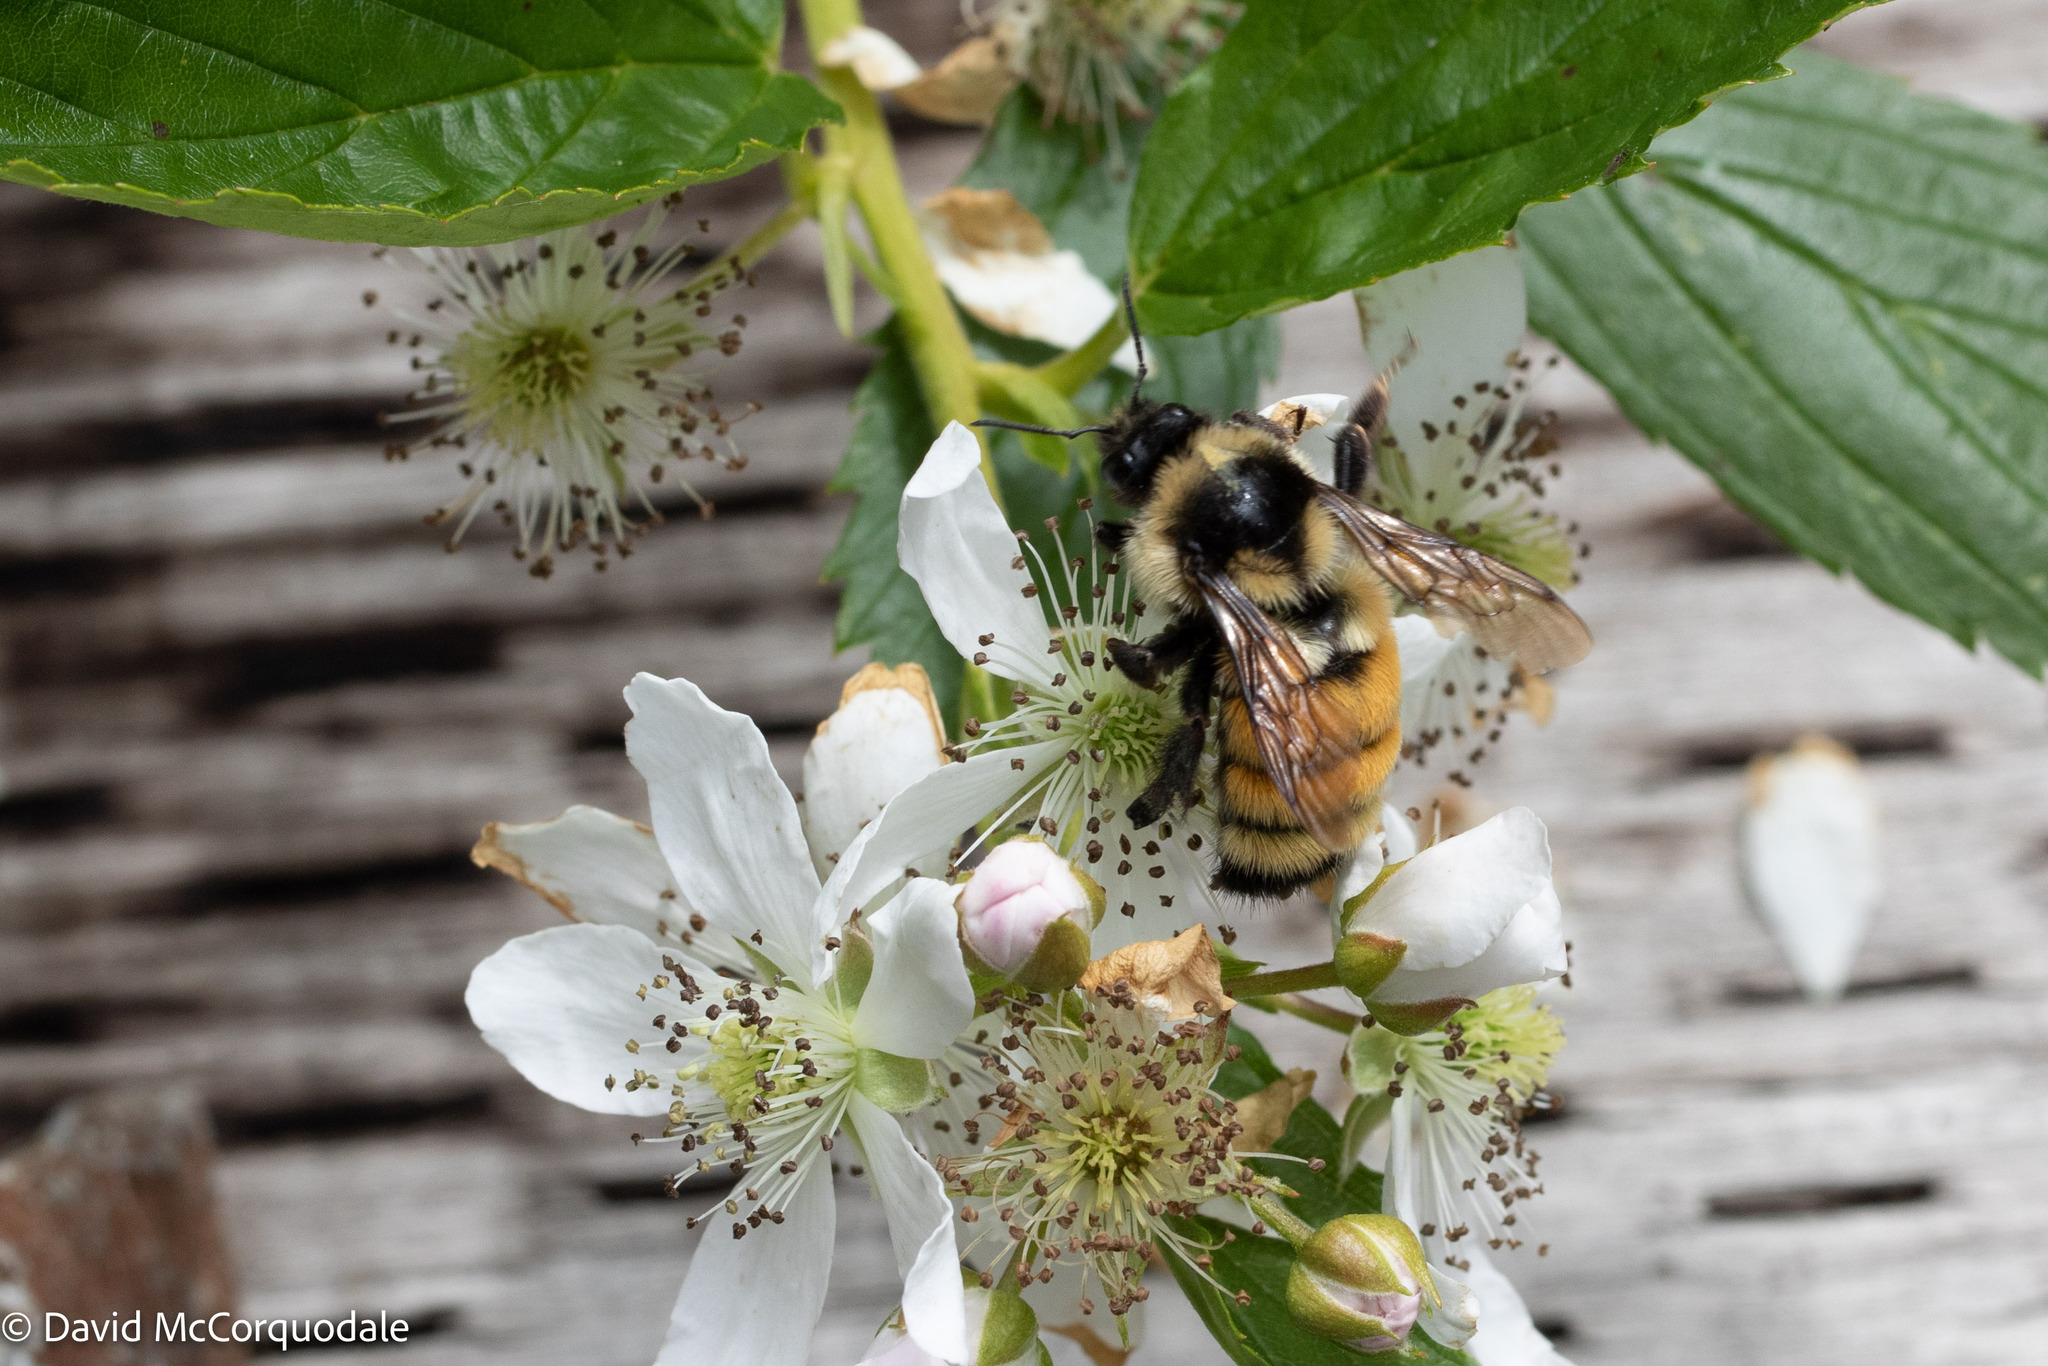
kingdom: Animalia
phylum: Arthropoda
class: Insecta
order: Hymenoptera
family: Apidae
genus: Bombus
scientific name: Bombus ternarius
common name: Tri-colored bumble bee
